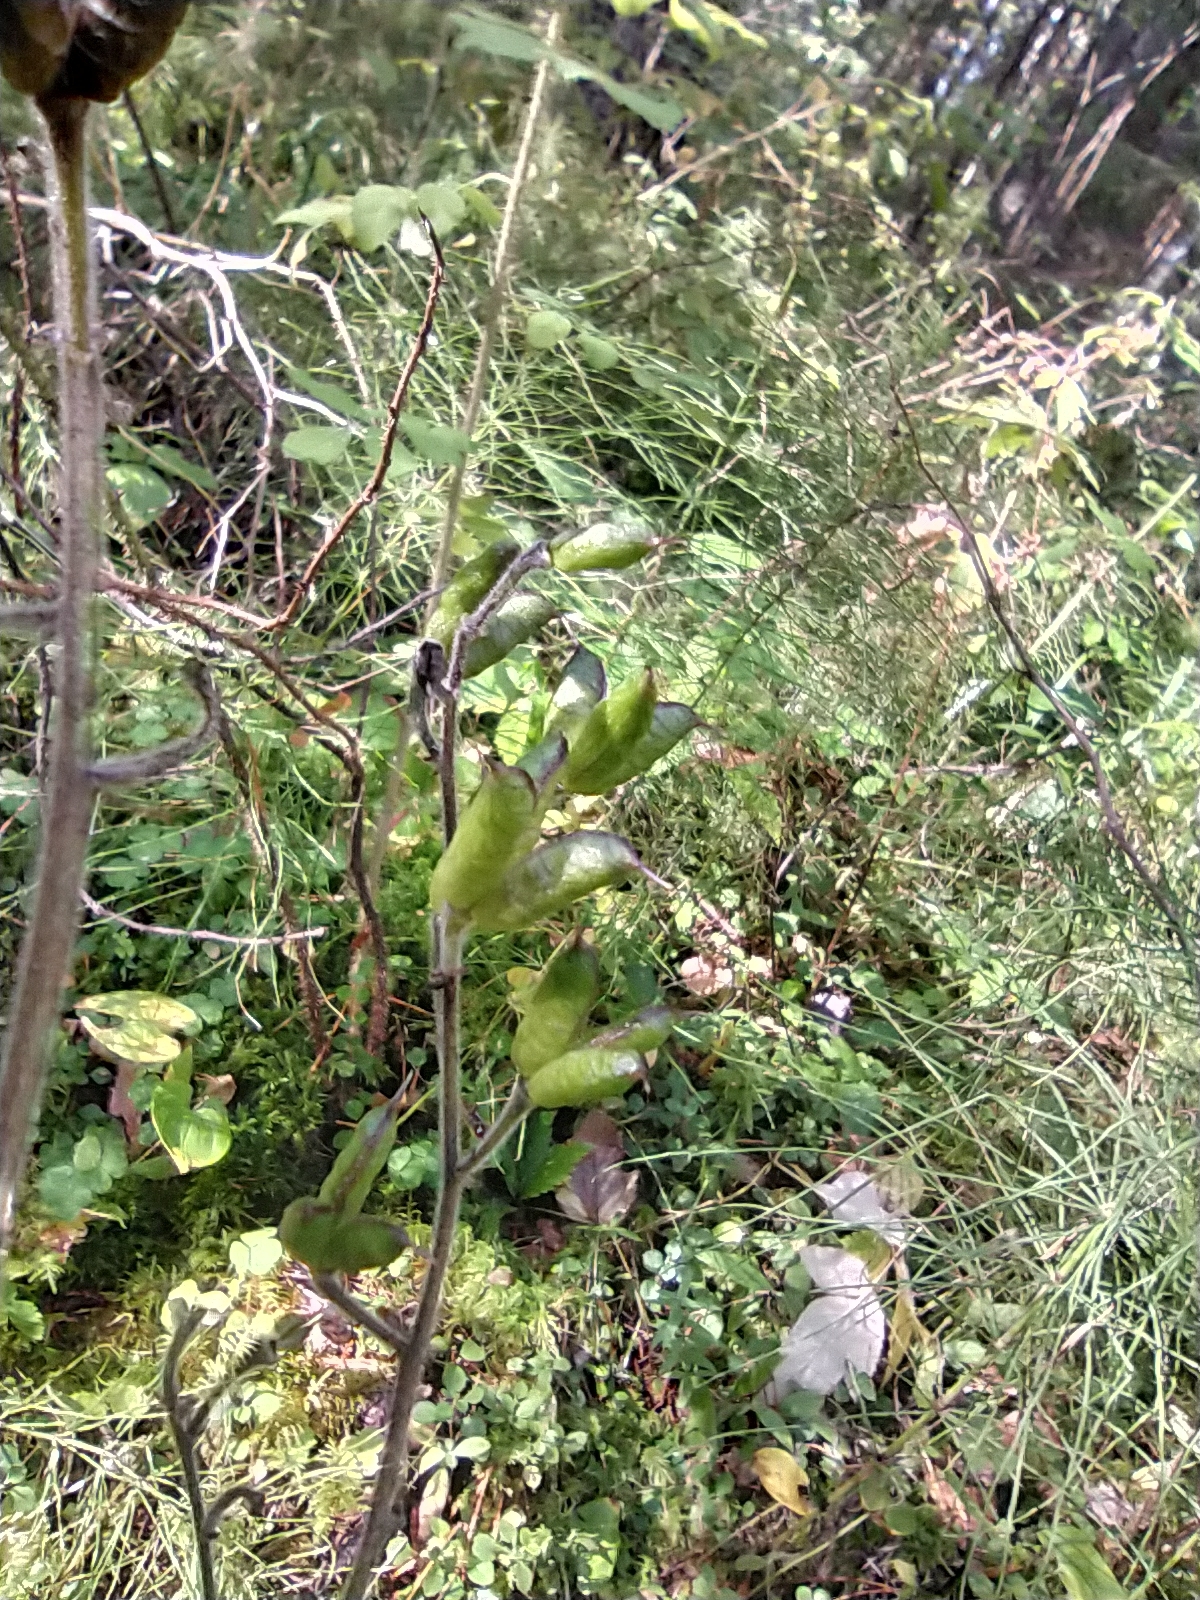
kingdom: Plantae
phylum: Tracheophyta
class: Magnoliopsida
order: Ranunculales
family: Ranunculaceae
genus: Aconitum
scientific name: Aconitum septentrionale
